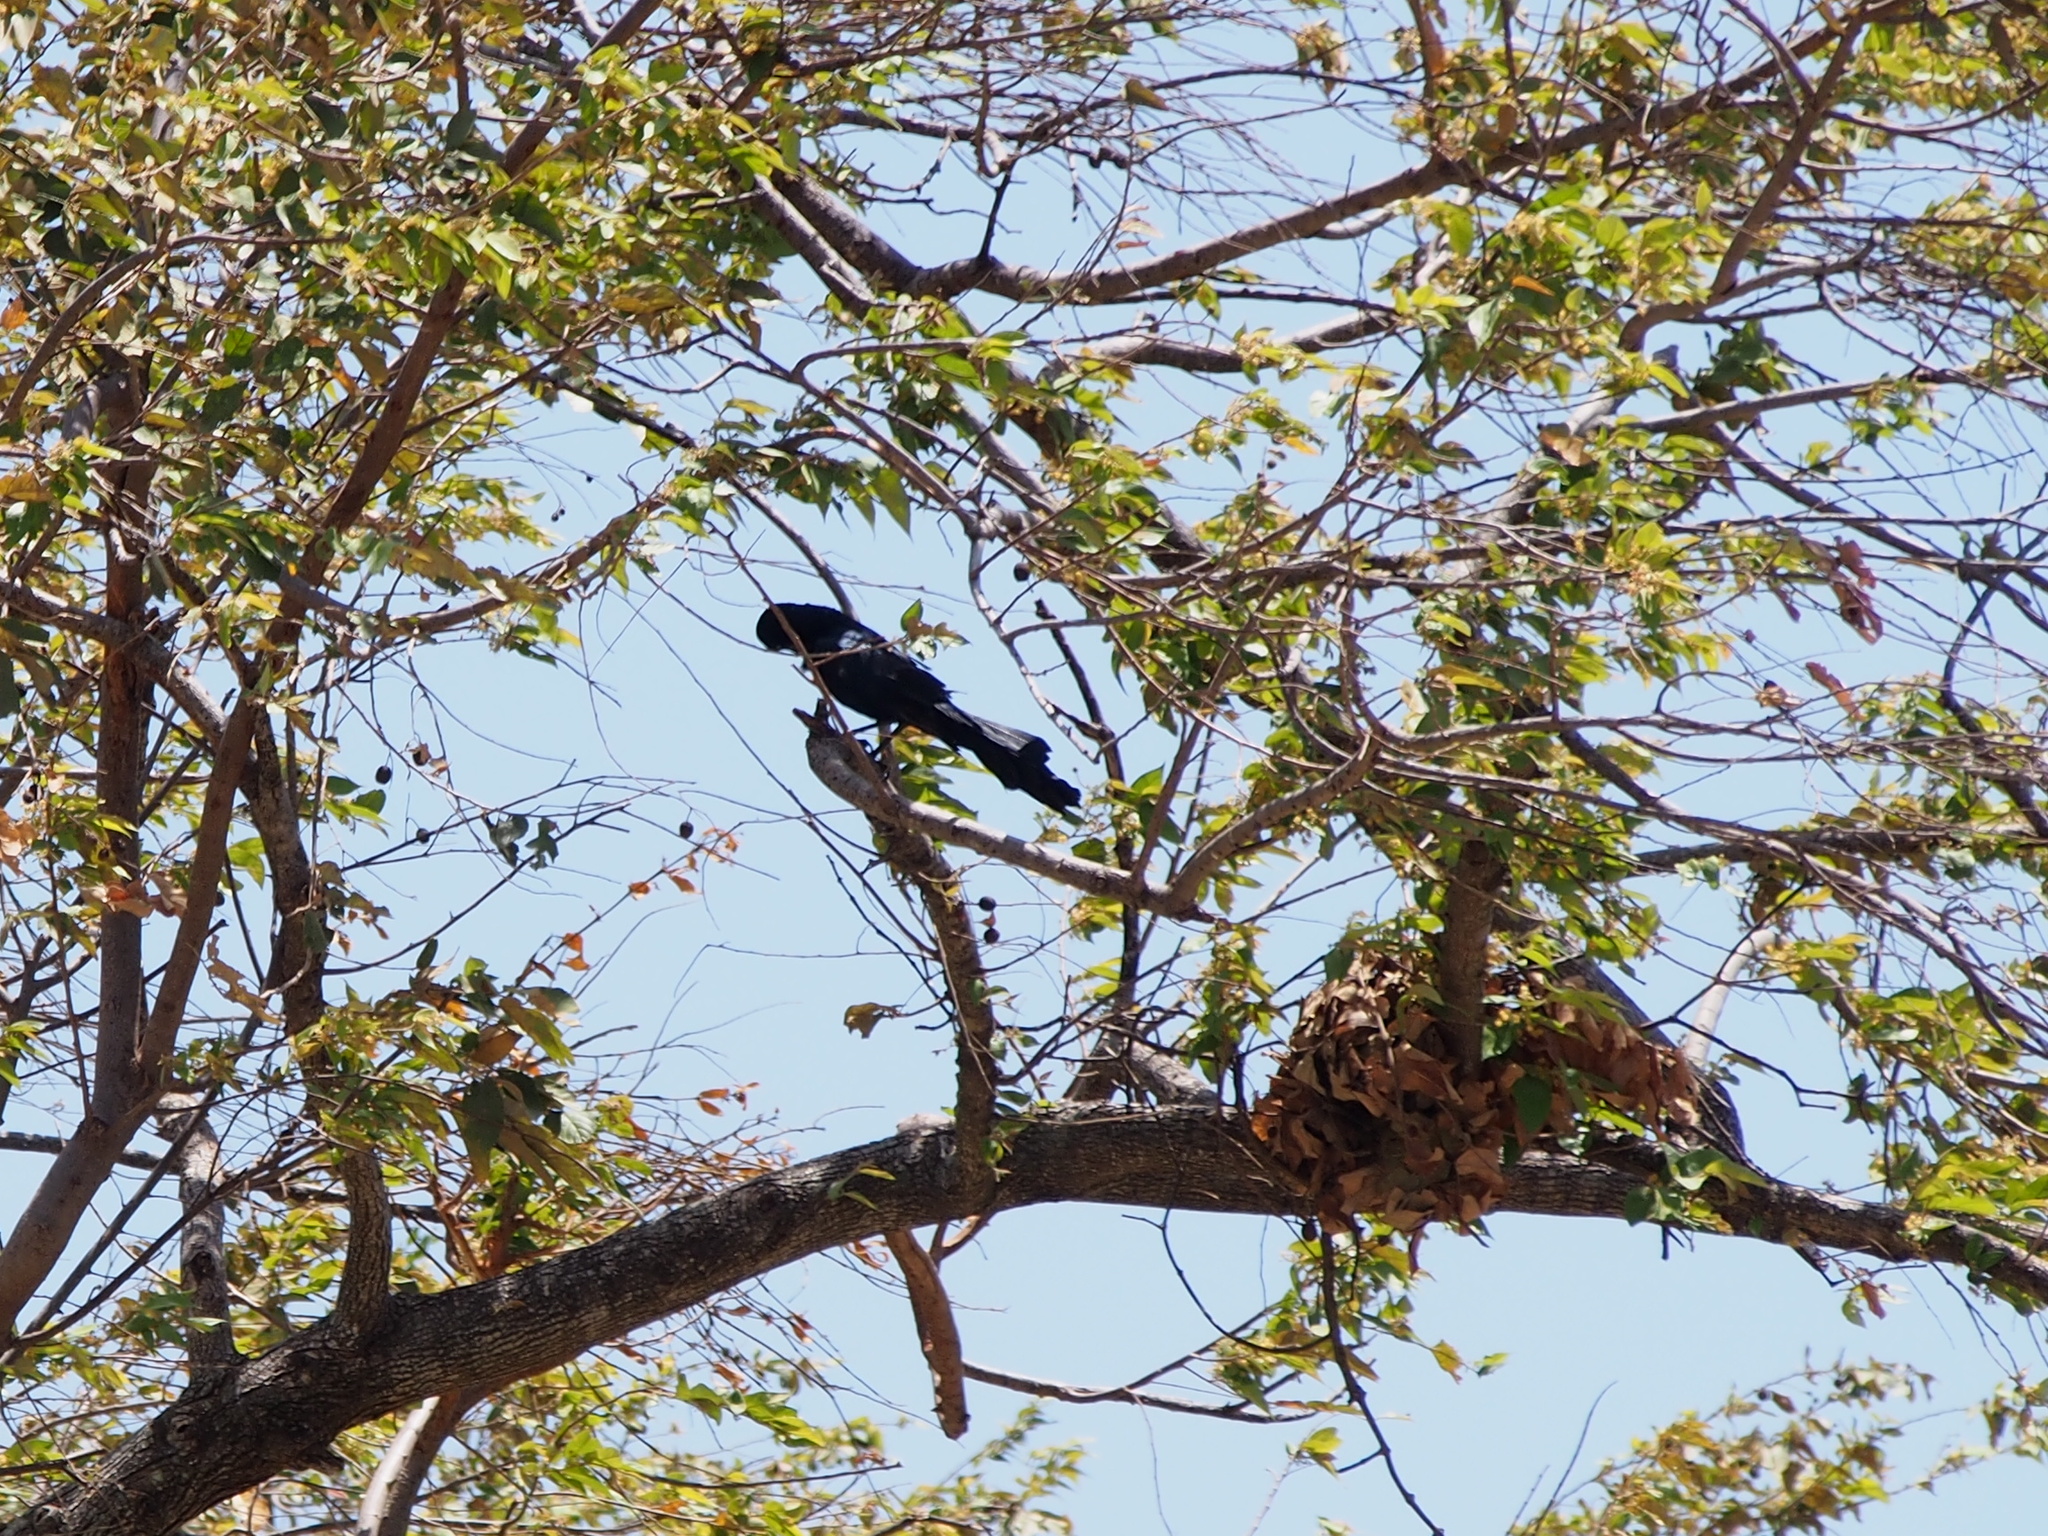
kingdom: Animalia
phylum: Chordata
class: Aves
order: Passeriformes
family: Icteridae
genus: Quiscalus
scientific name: Quiscalus mexicanus
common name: Great-tailed grackle
